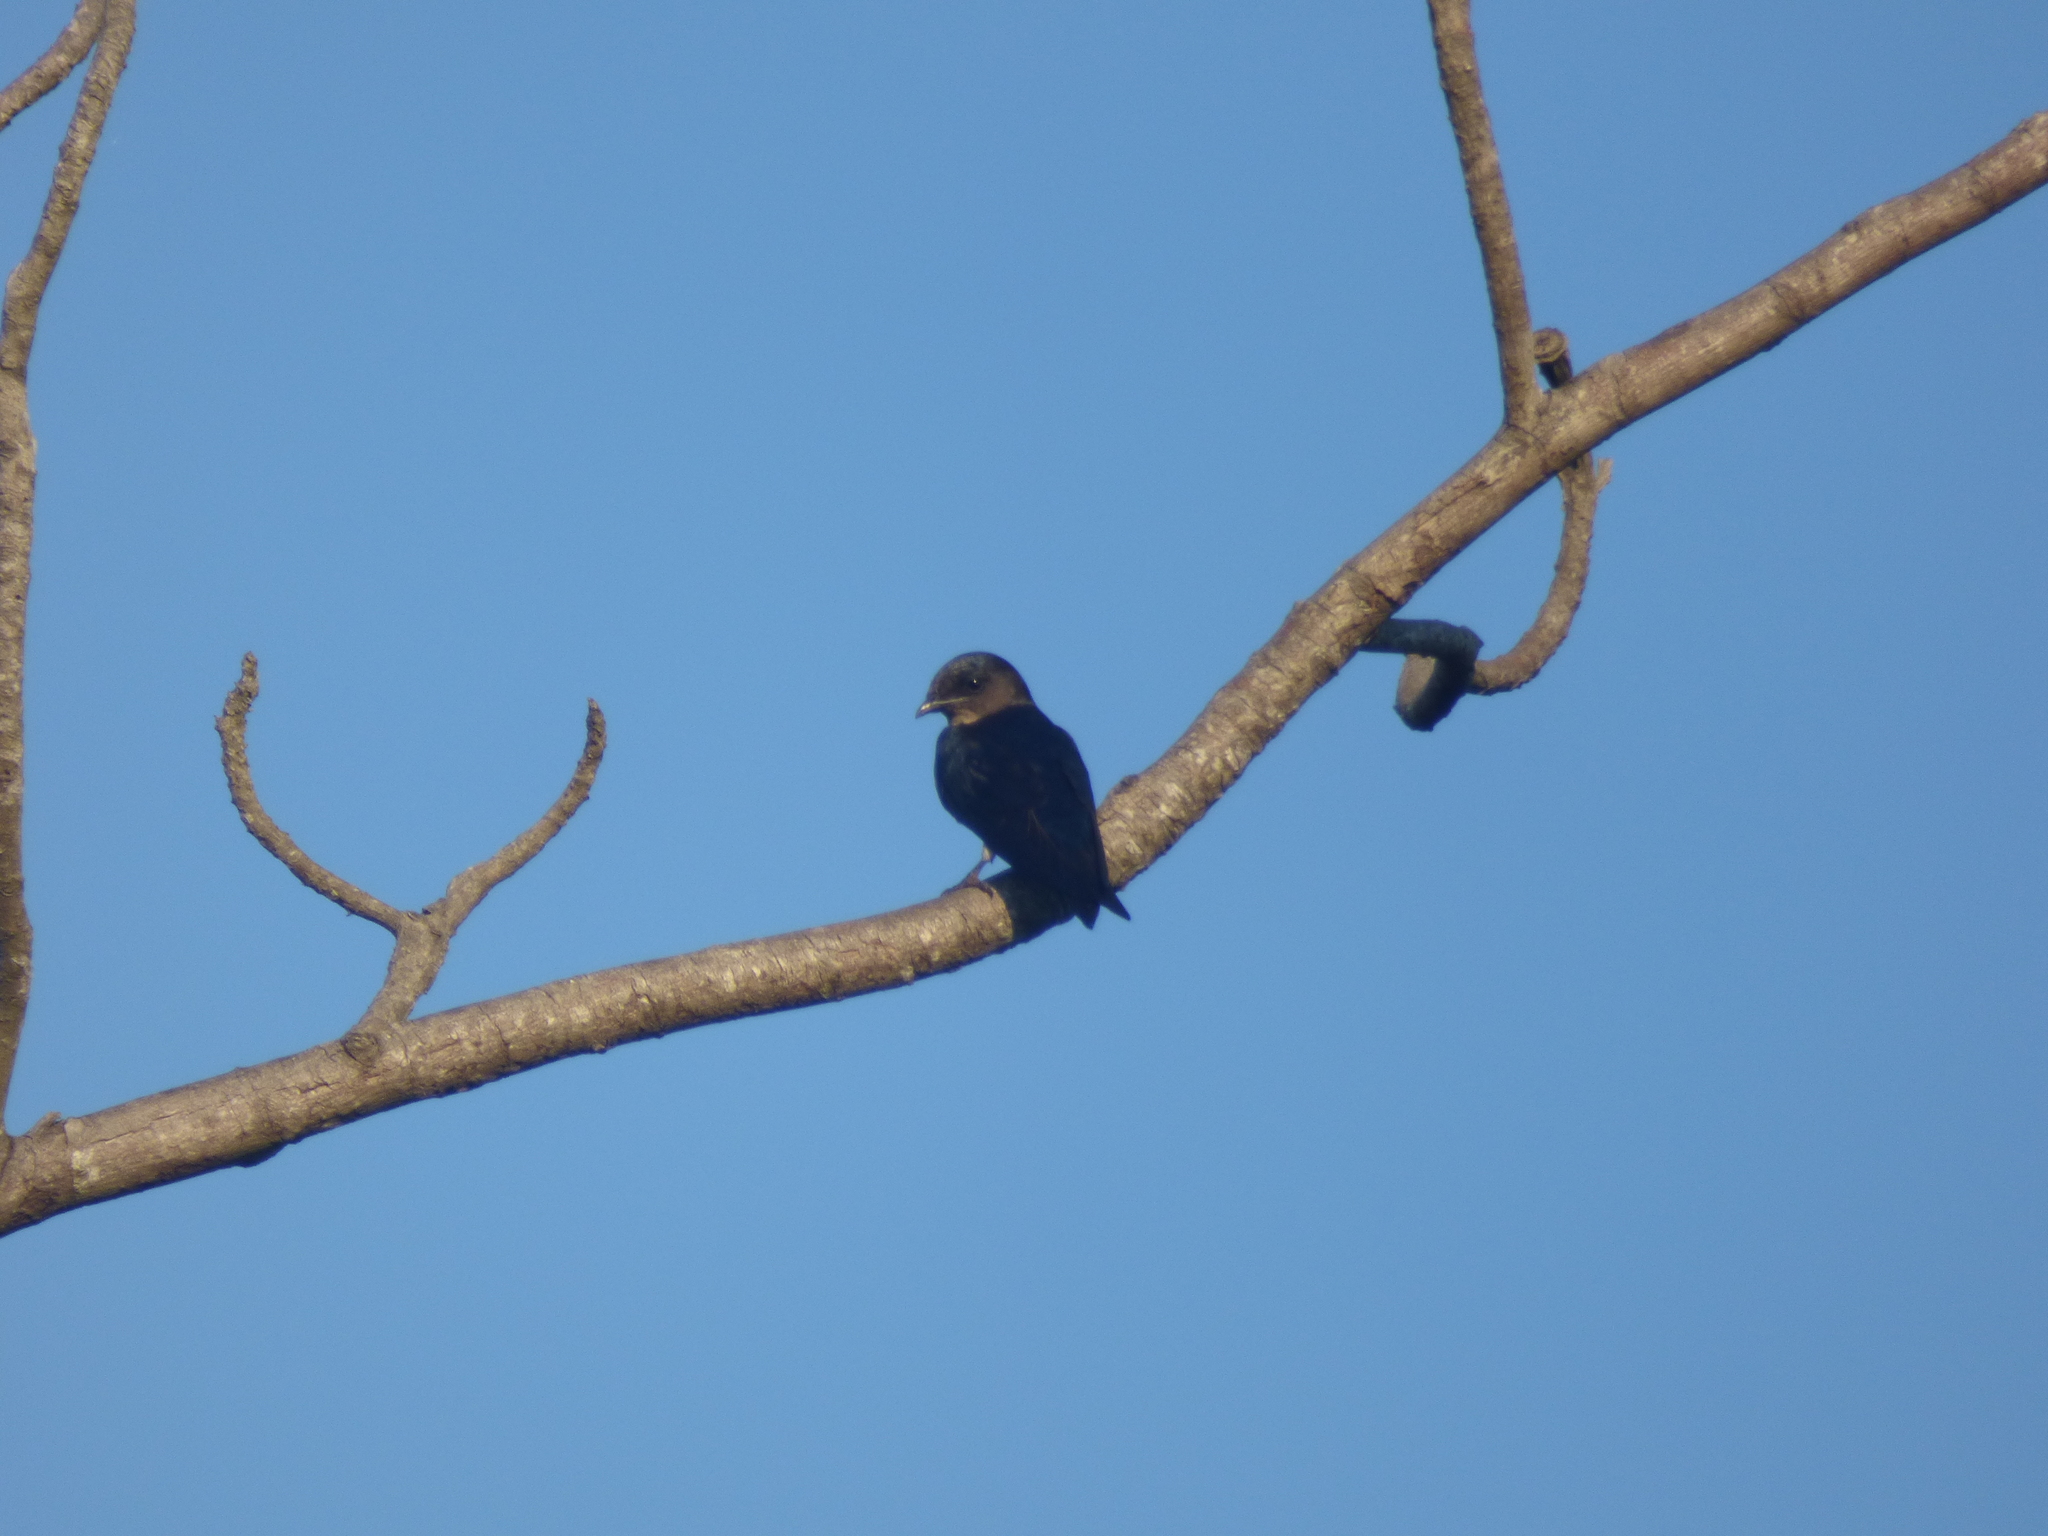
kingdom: Animalia
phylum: Chordata
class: Aves
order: Passeriformes
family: Hirundinidae
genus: Progne
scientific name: Progne chalybea
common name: Grey-breasted martin
